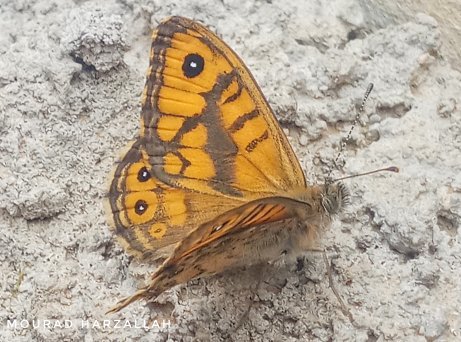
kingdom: Animalia
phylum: Arthropoda
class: Insecta
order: Lepidoptera
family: Nymphalidae
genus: Pararge
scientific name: Pararge Lasiommata megera
